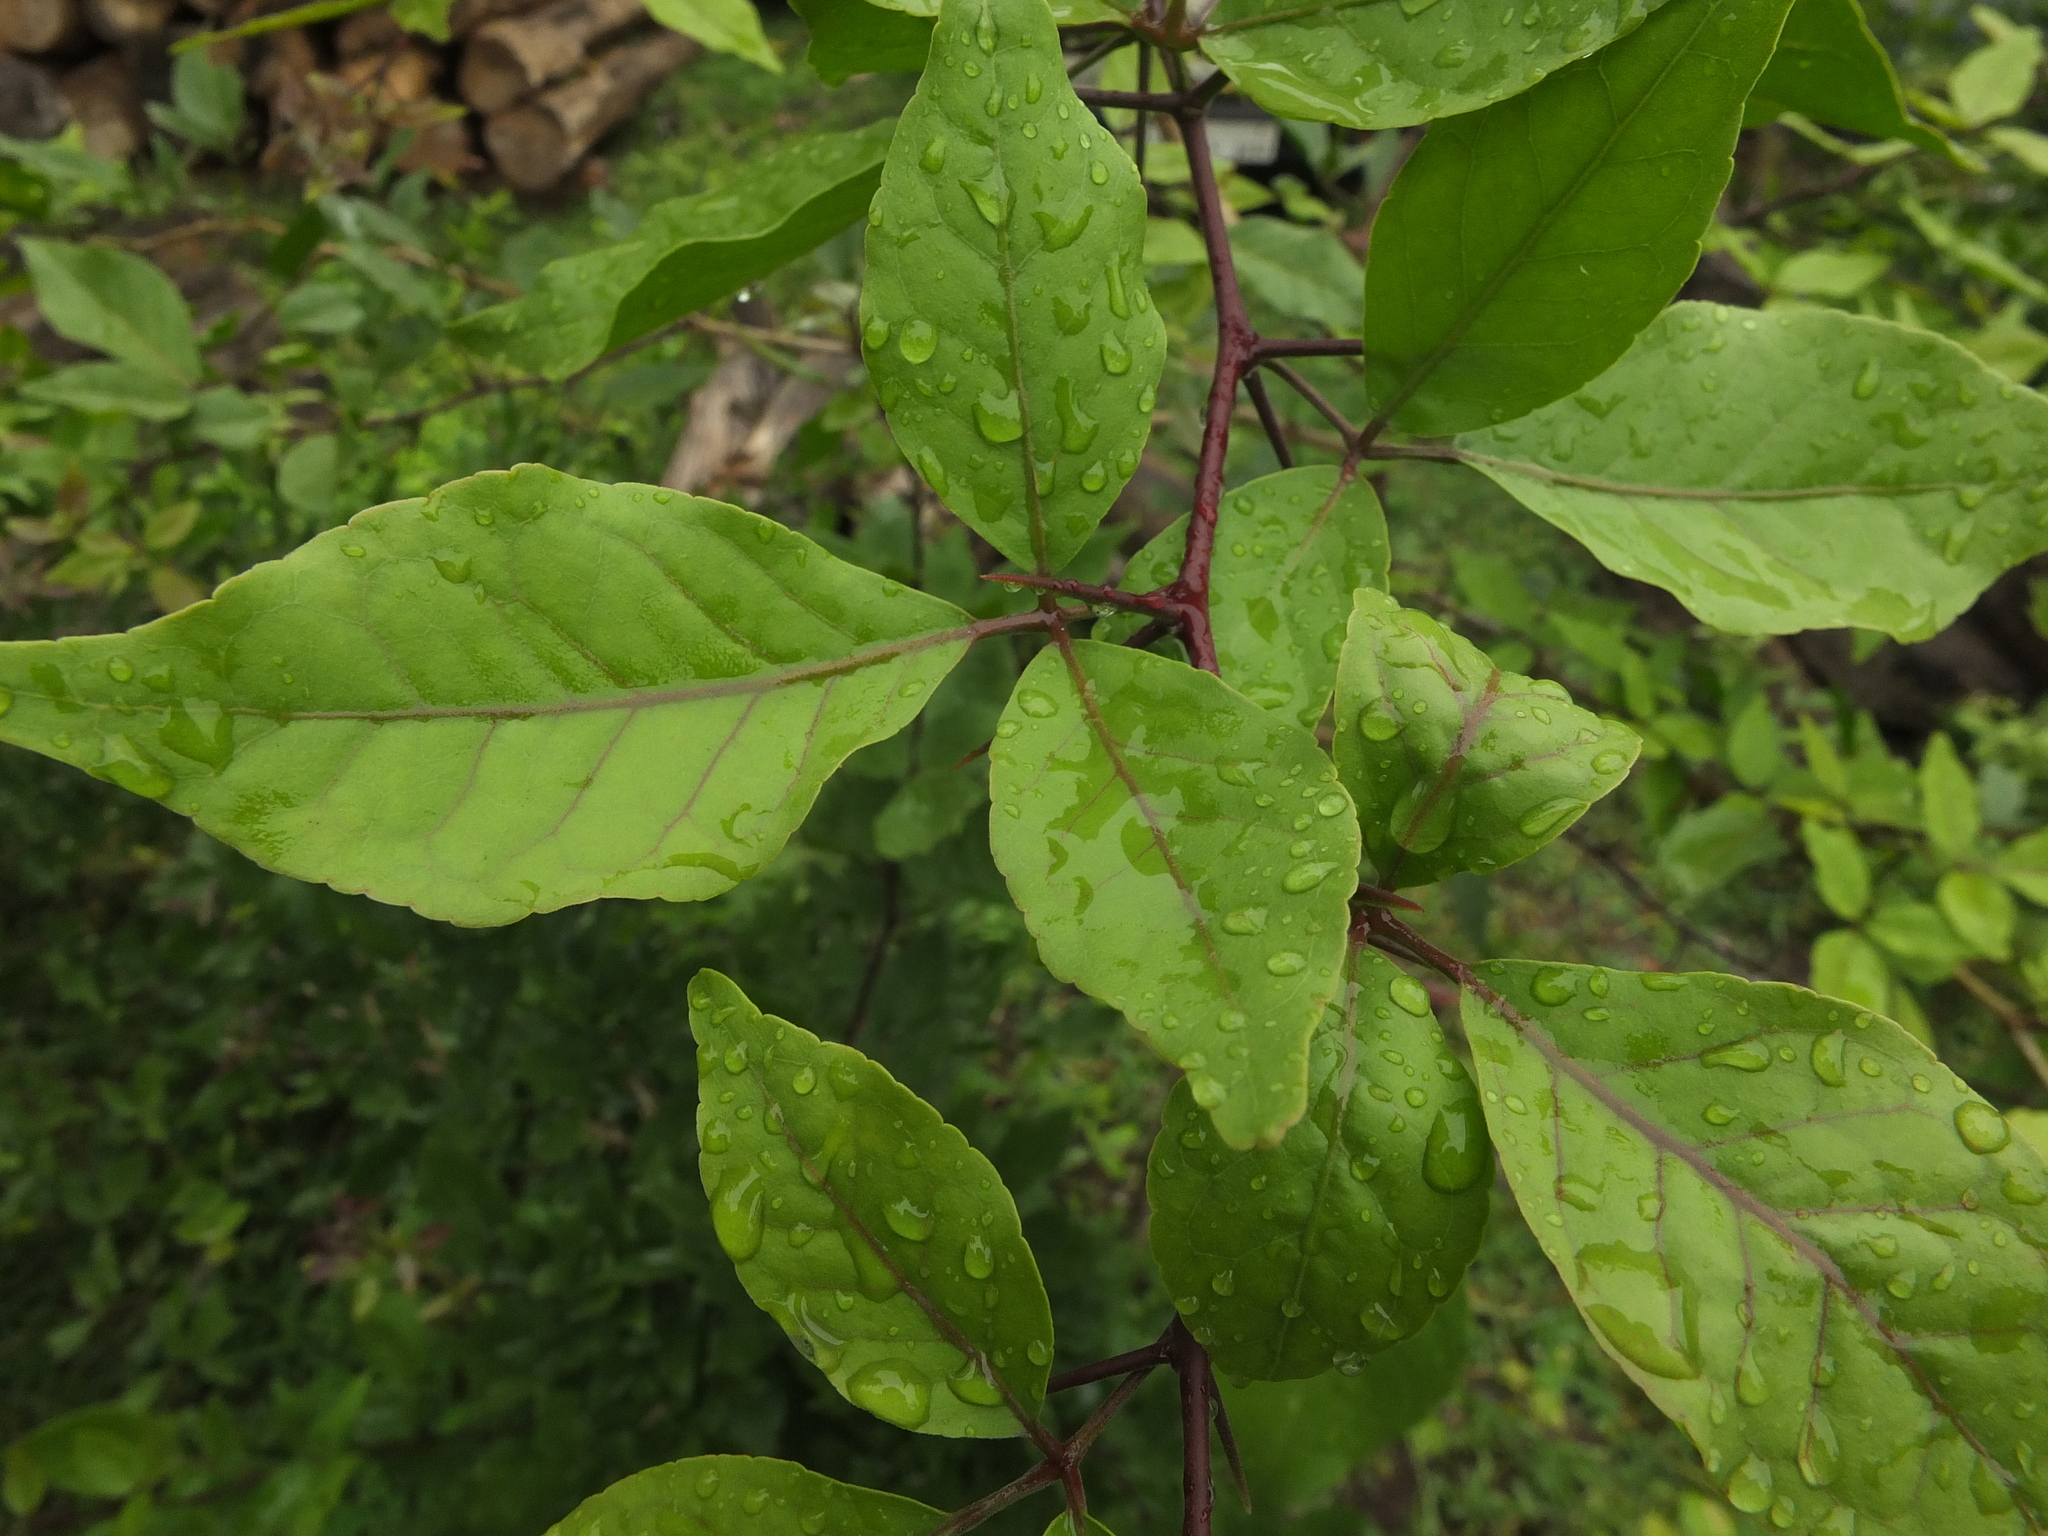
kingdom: Plantae
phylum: Tracheophyta
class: Magnoliopsida
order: Sapindales
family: Rutaceae
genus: Aegle
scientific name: Aegle marmelos
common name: Bael
